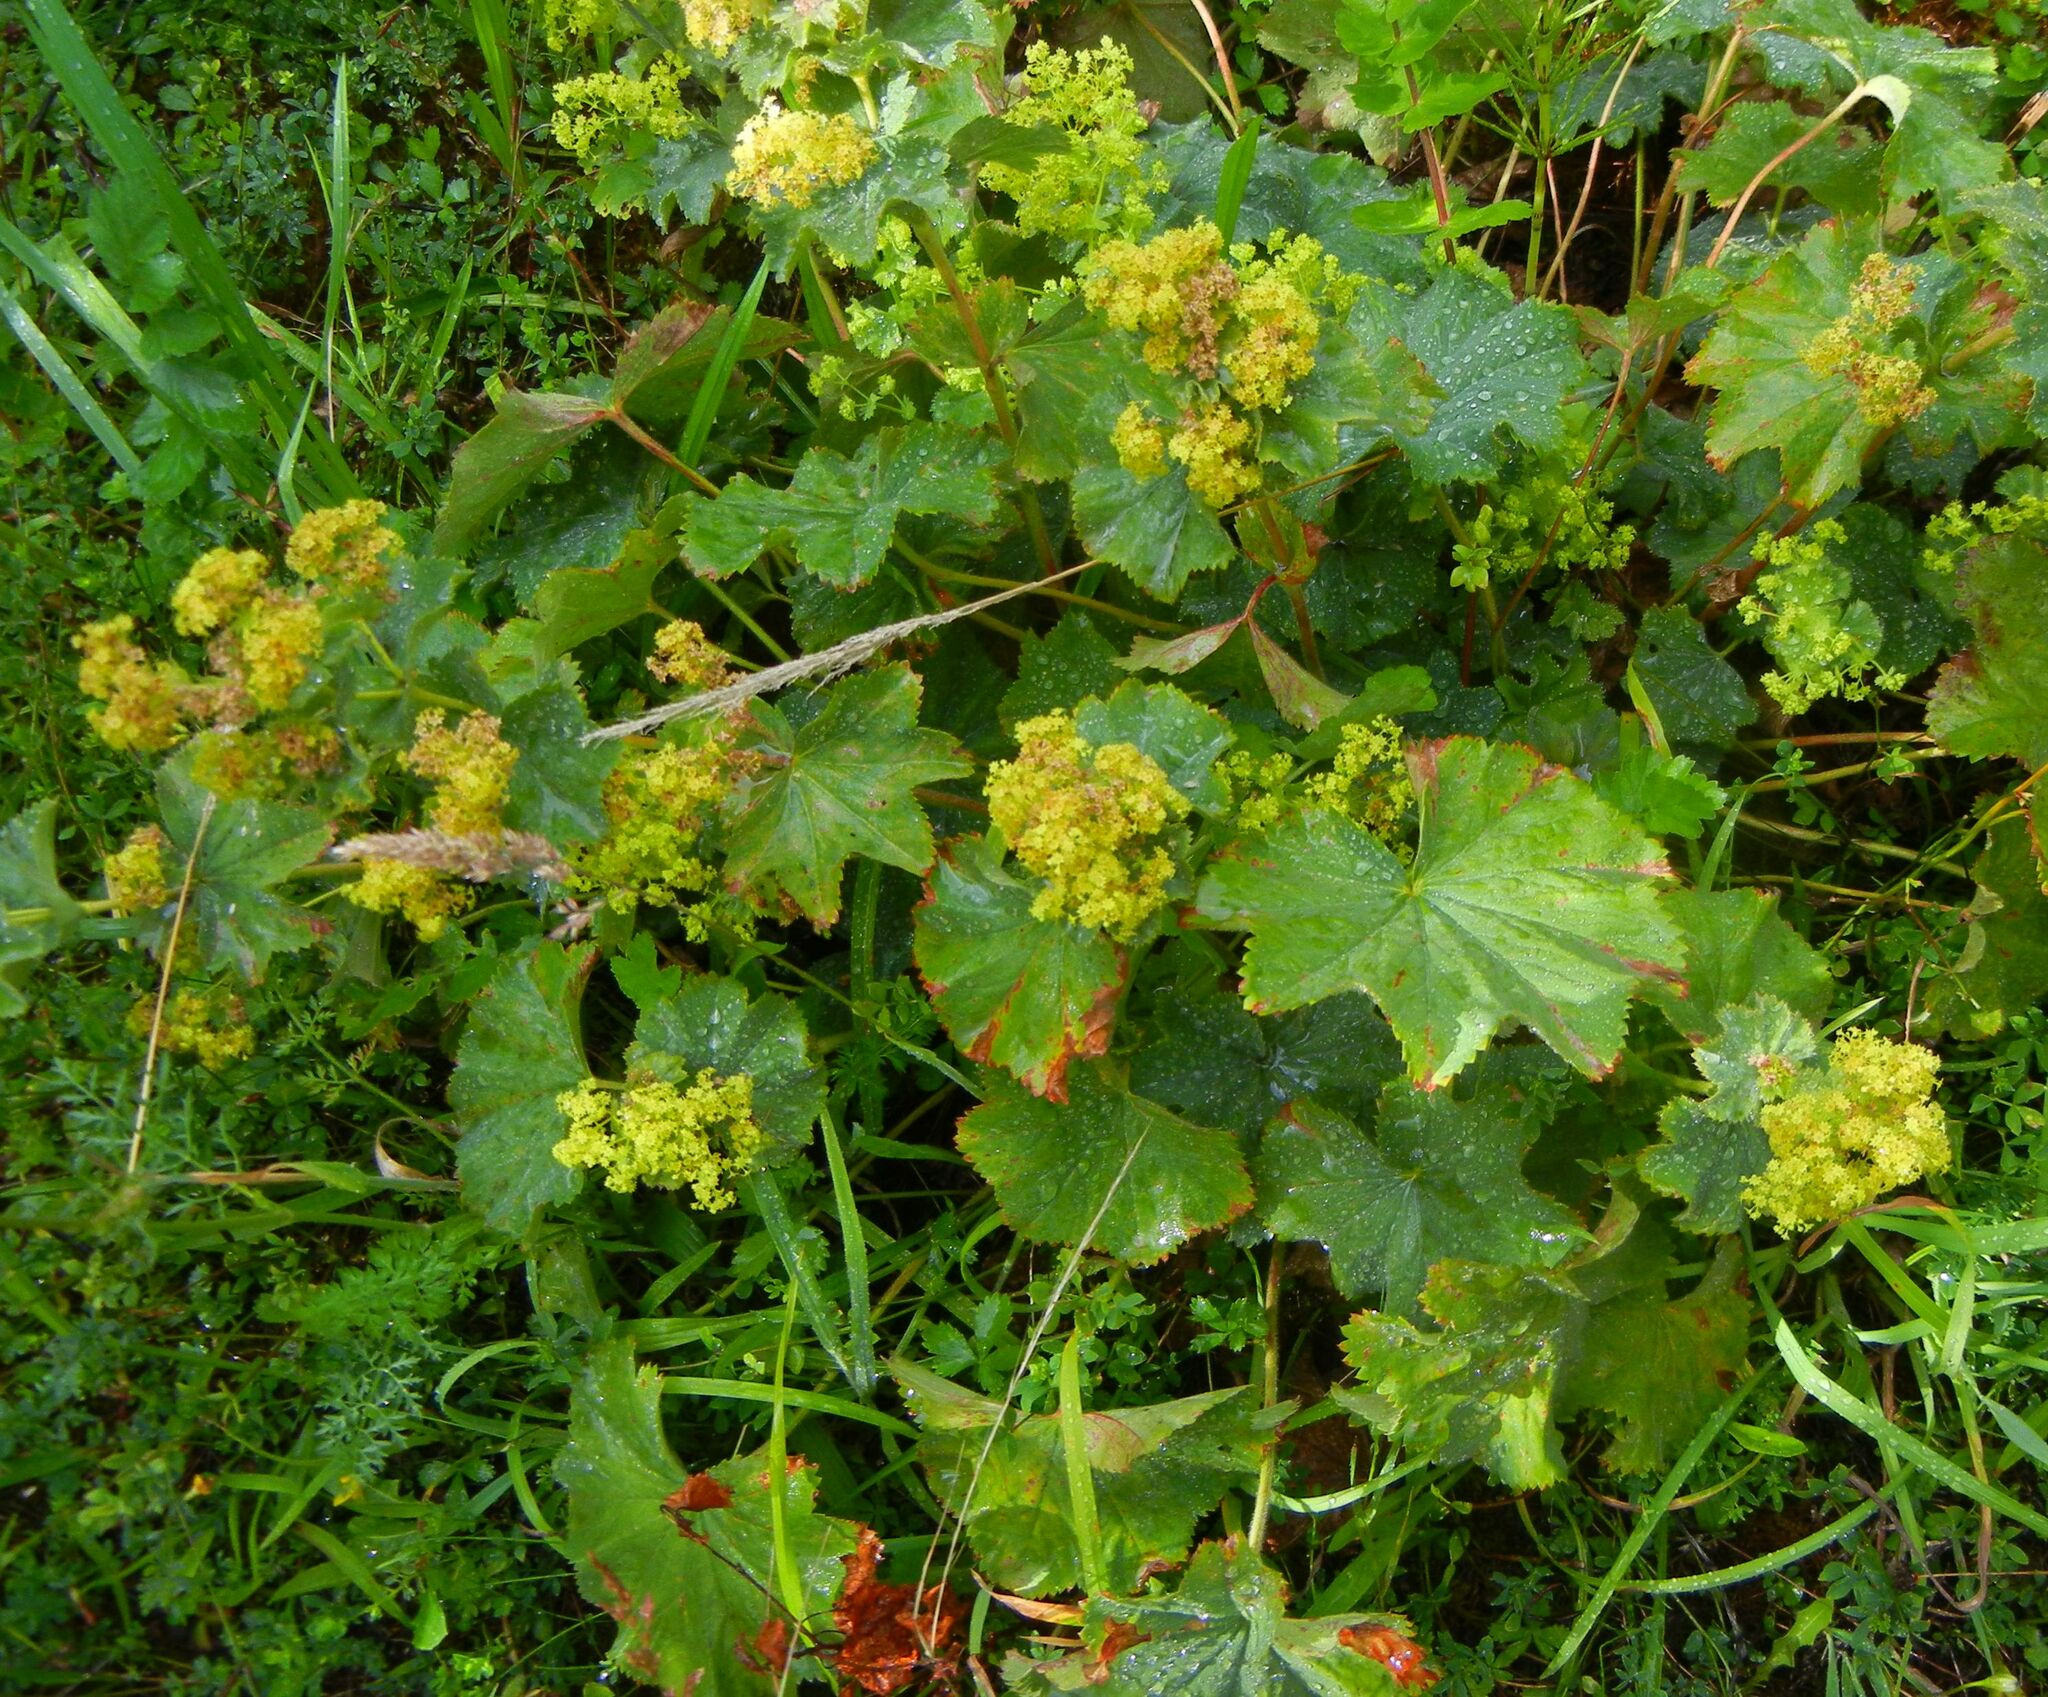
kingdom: Plantae
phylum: Tracheophyta
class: Magnoliopsida
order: Rosales
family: Rosaceae
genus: Alchemilla
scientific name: Alchemilla mollis
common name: Lady's-mantle
